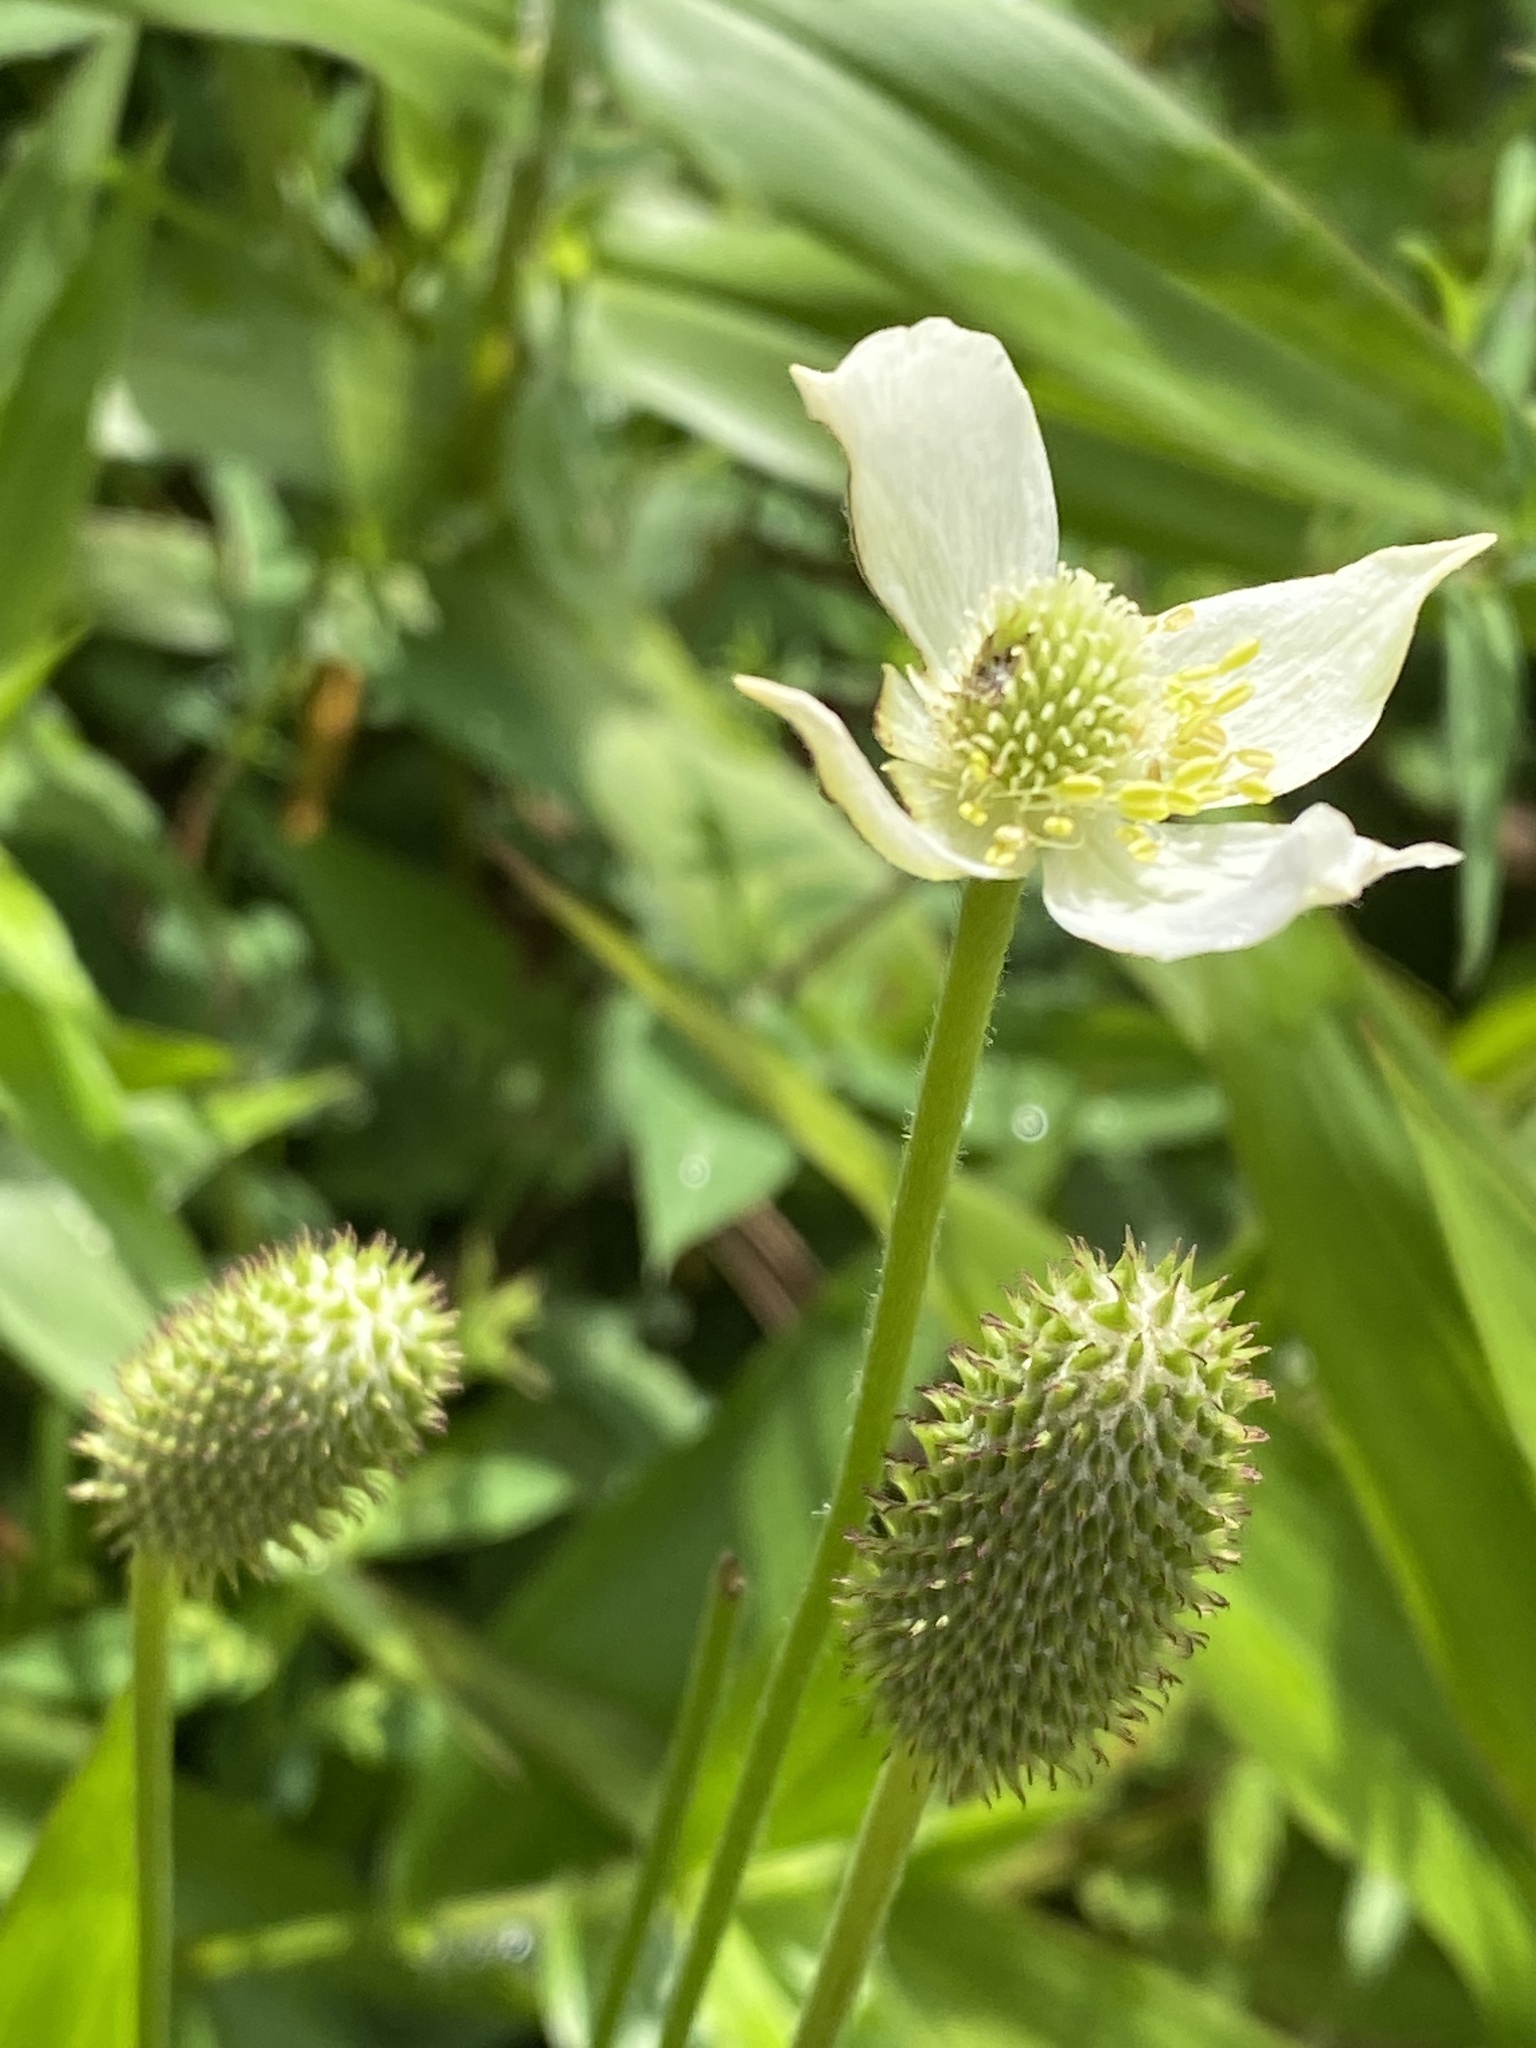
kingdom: Plantae
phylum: Tracheophyta
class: Magnoliopsida
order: Ranunculales
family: Ranunculaceae
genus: Anemone
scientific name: Anemone virginiana
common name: Tall anemone
